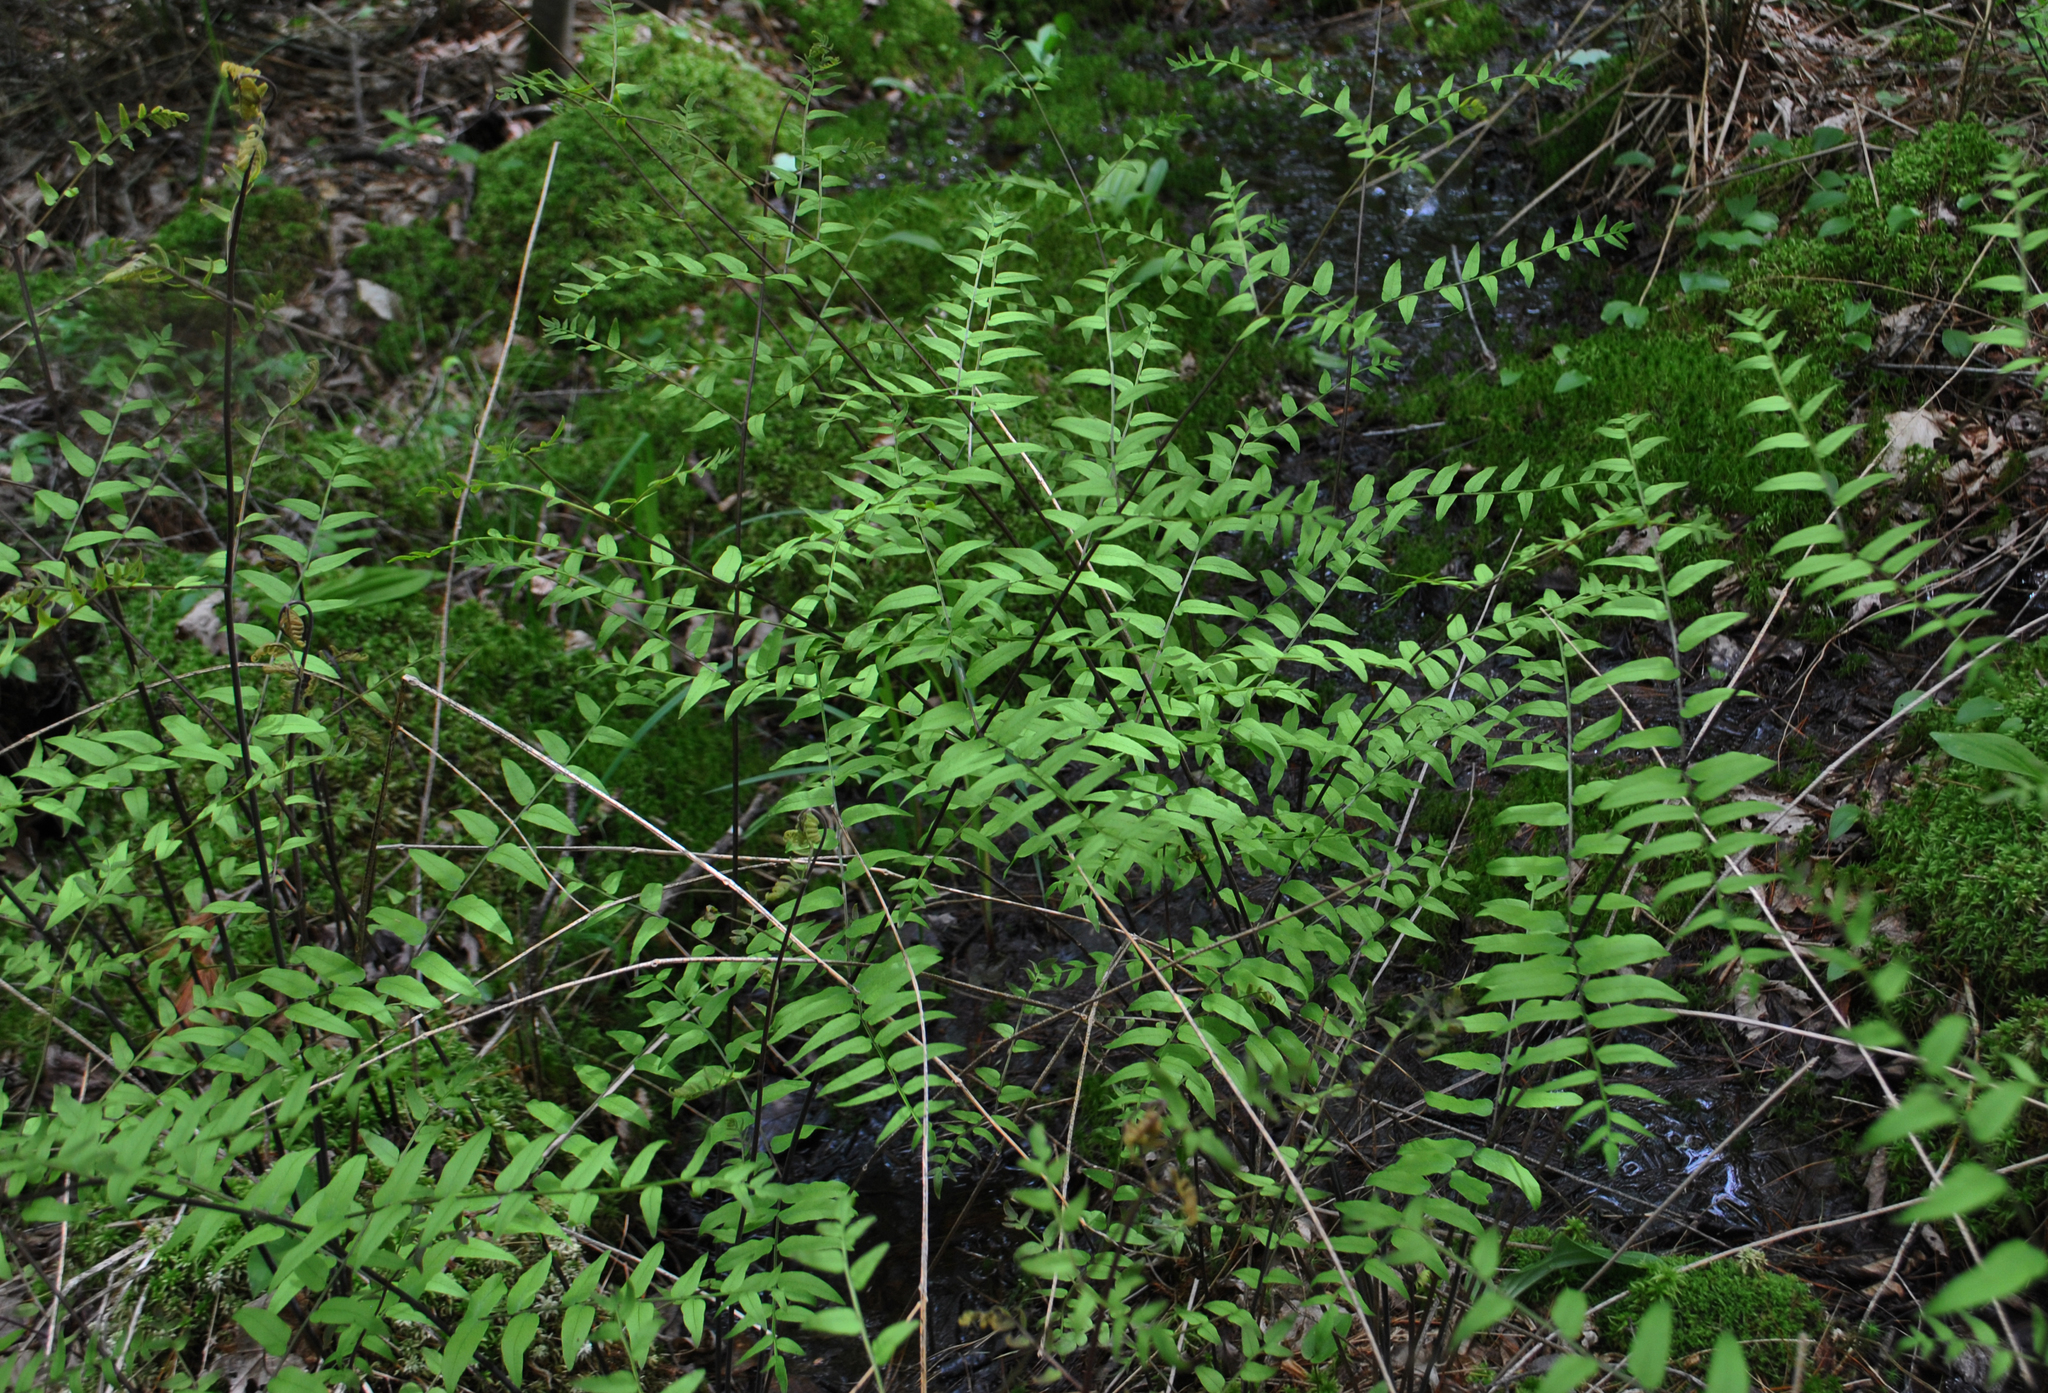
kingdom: Plantae
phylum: Tracheophyta
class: Polypodiopsida
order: Osmundales
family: Osmundaceae
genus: Osmunda
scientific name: Osmunda spectabilis
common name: American royal fern
